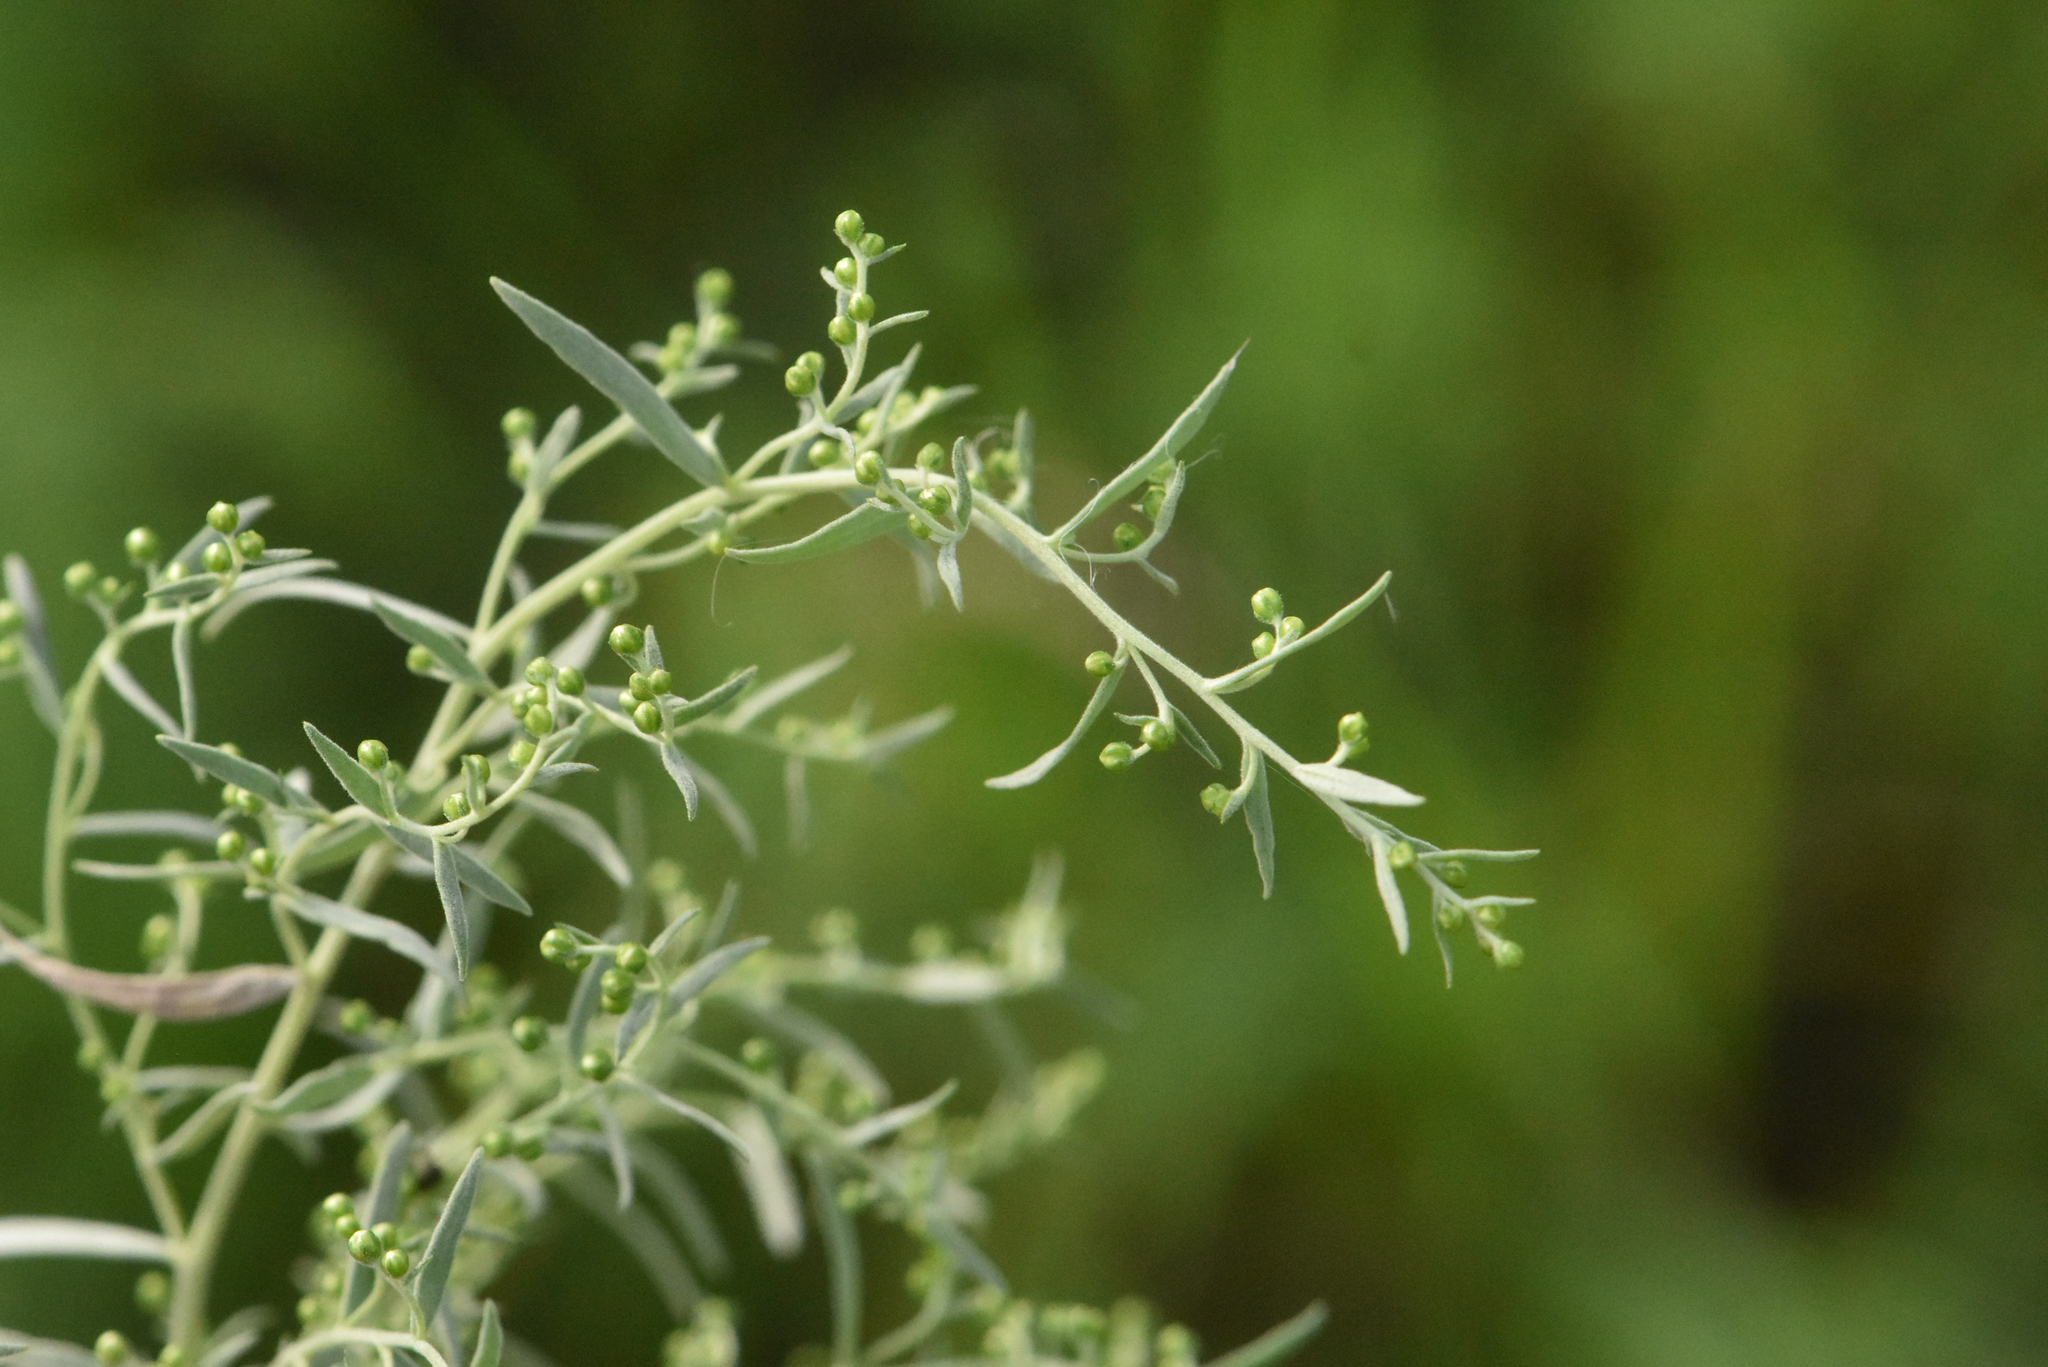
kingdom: Plantae
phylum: Tracheophyta
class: Magnoliopsida
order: Asterales
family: Asteraceae
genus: Artemisia
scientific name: Artemisia glauca
